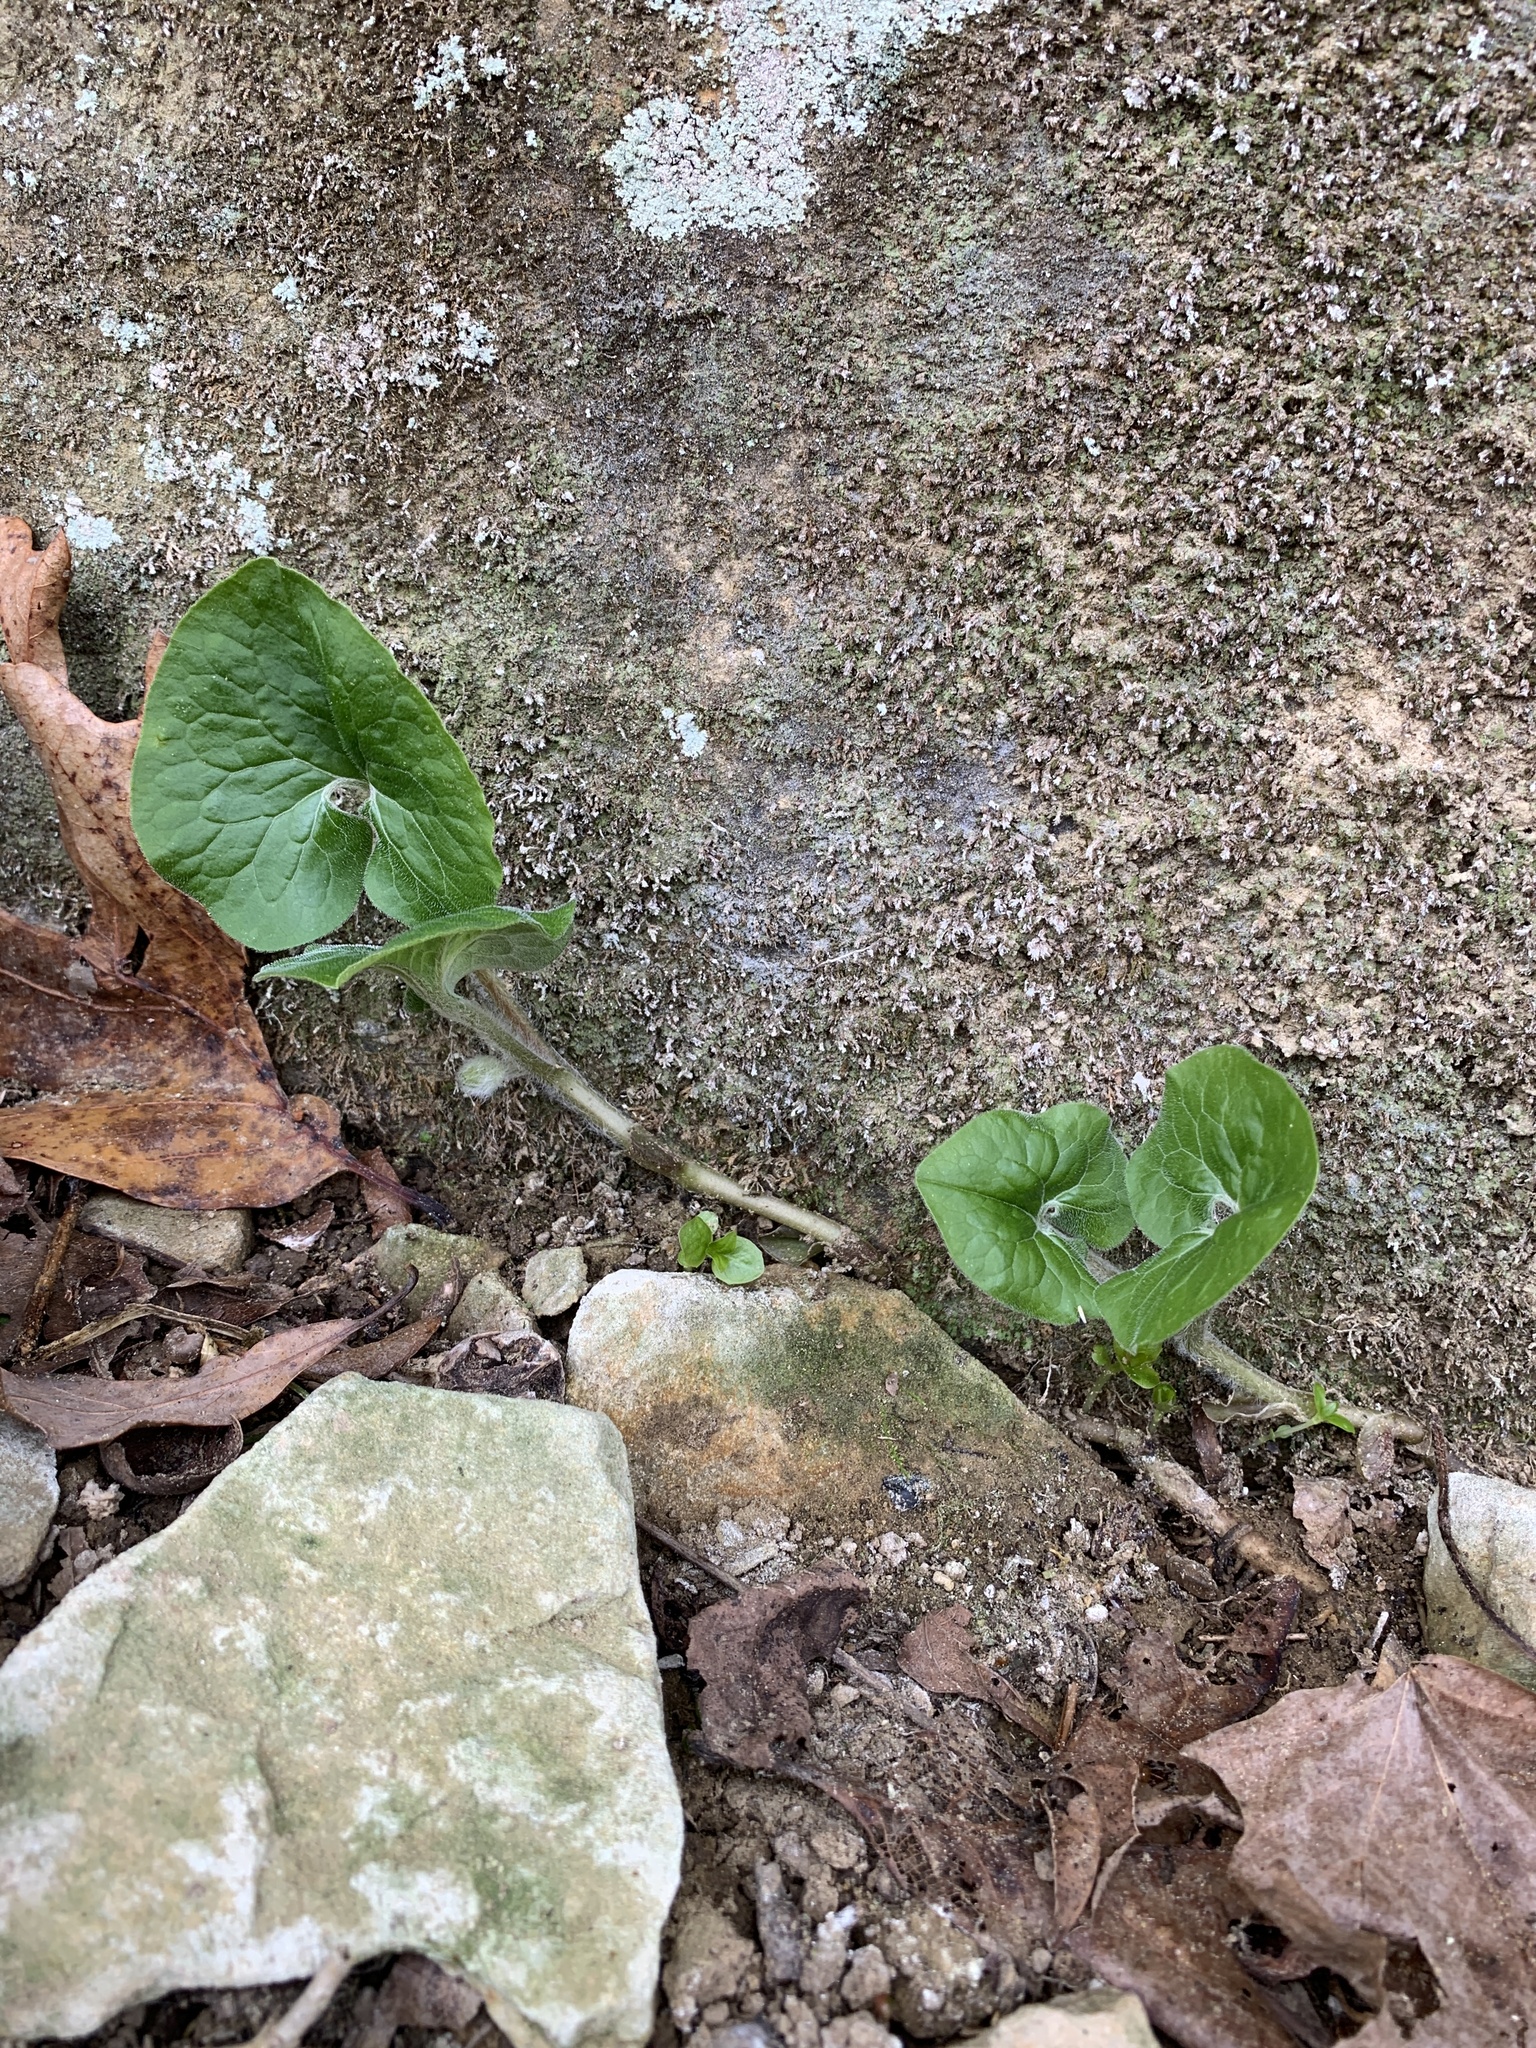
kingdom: Plantae
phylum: Tracheophyta
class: Magnoliopsida
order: Piperales
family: Aristolochiaceae
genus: Asarum
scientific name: Asarum canadense
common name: Wild ginger
